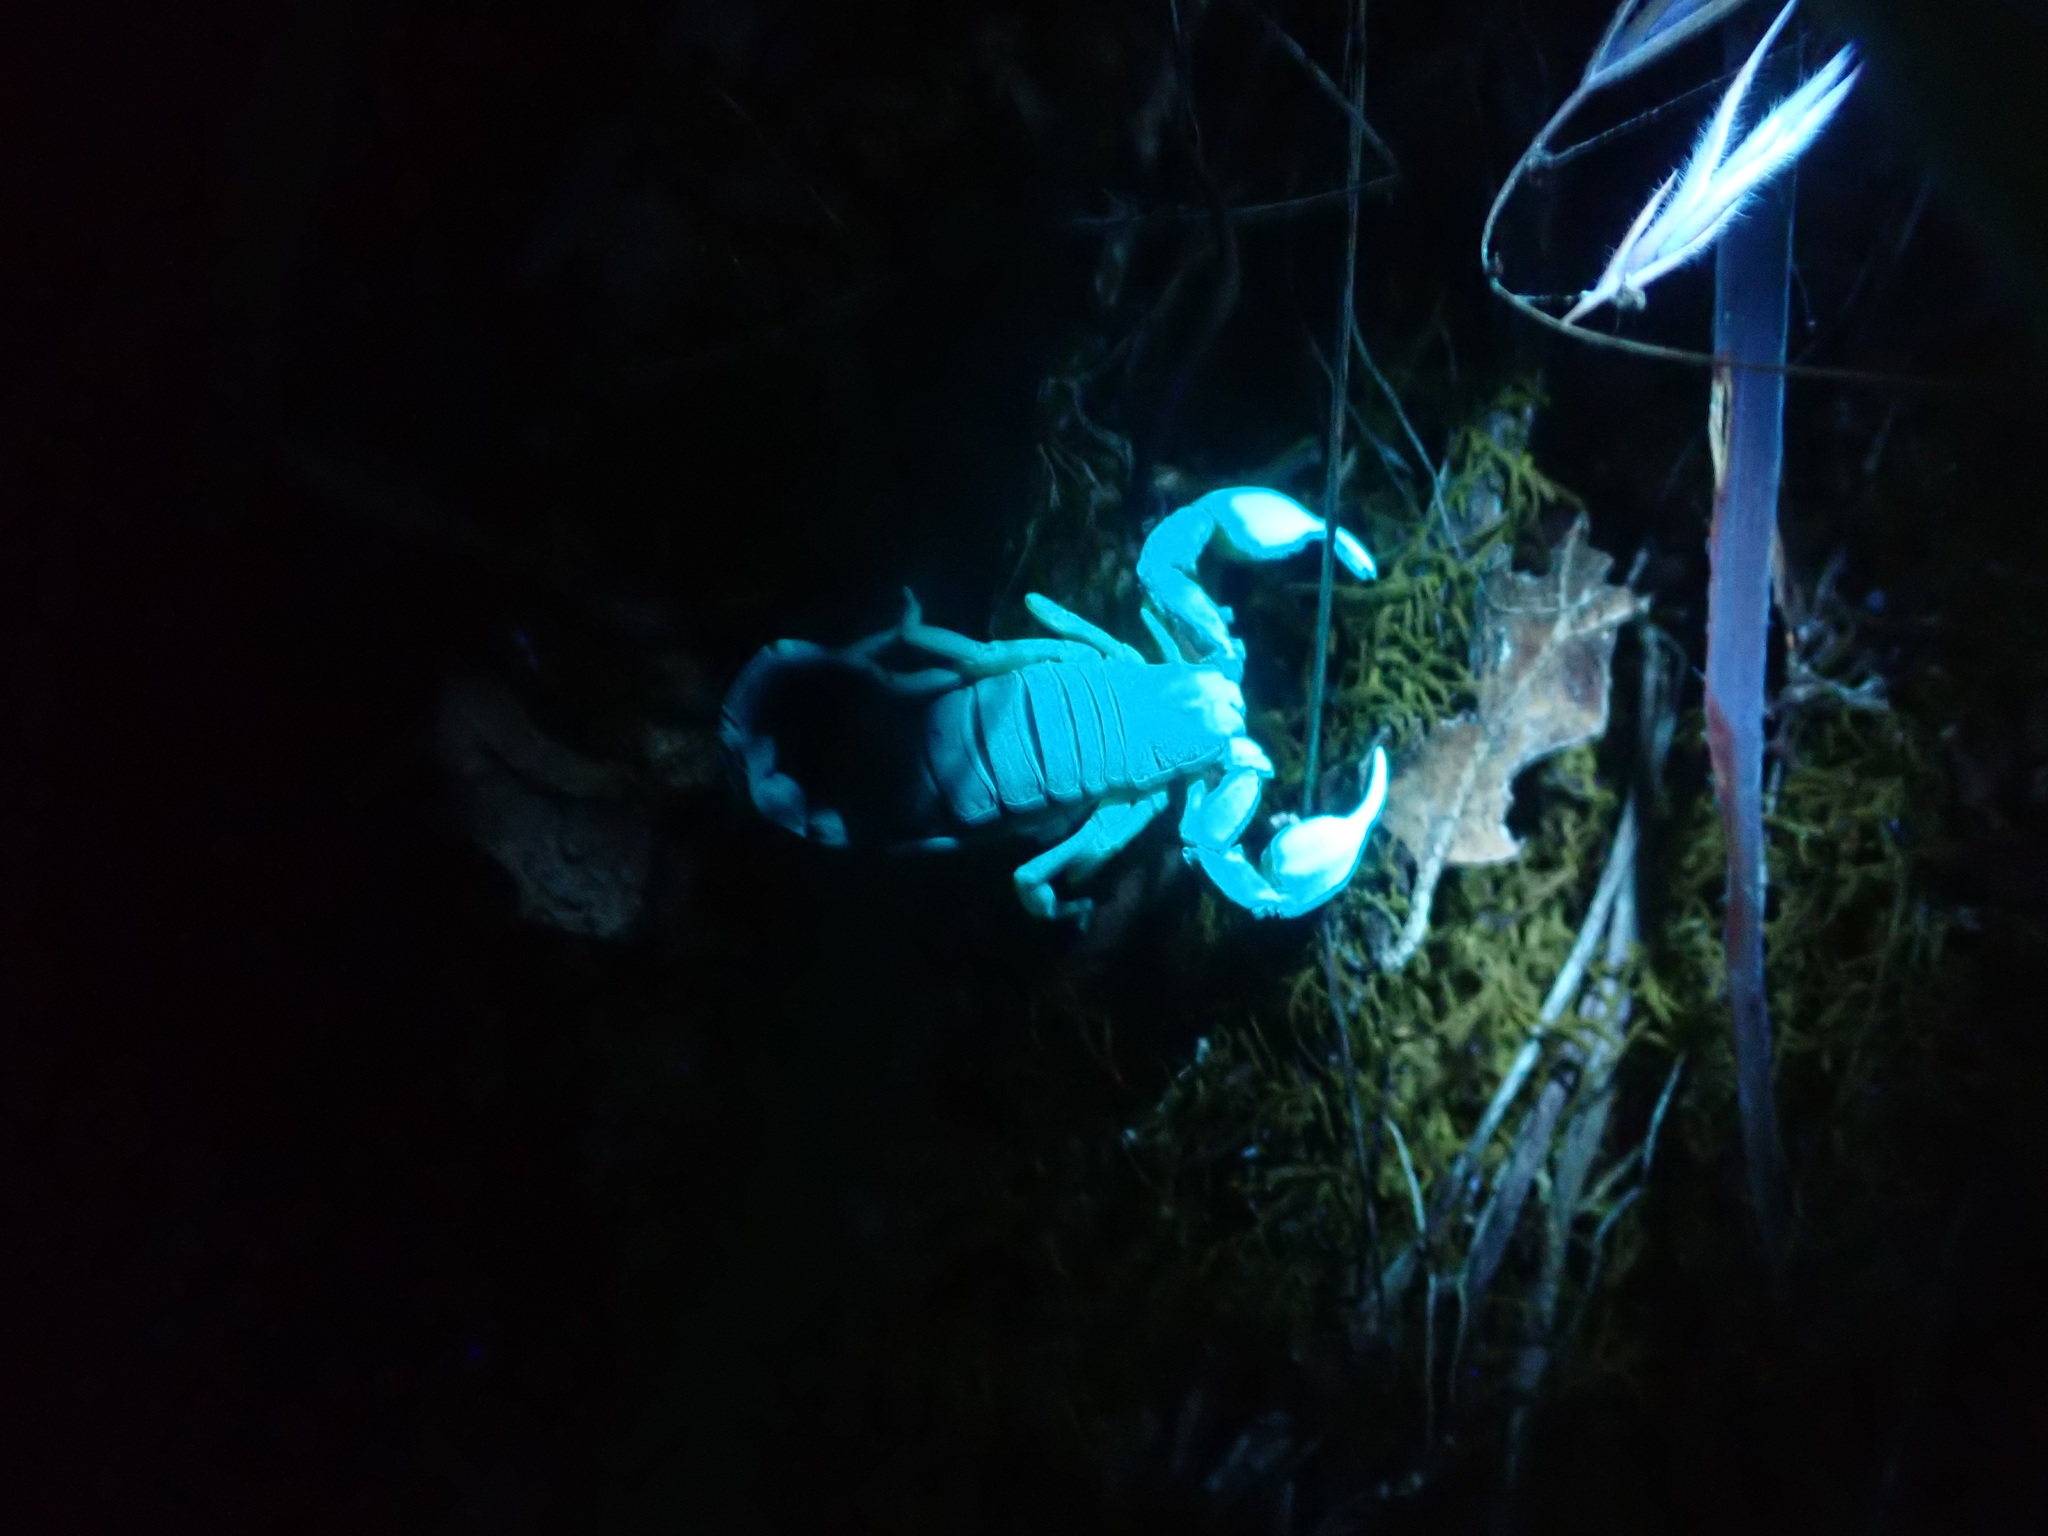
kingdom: Animalia
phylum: Arthropoda
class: Arachnida
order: Scorpiones
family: Chactidae
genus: Uroctonus
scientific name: Uroctonus mordax
